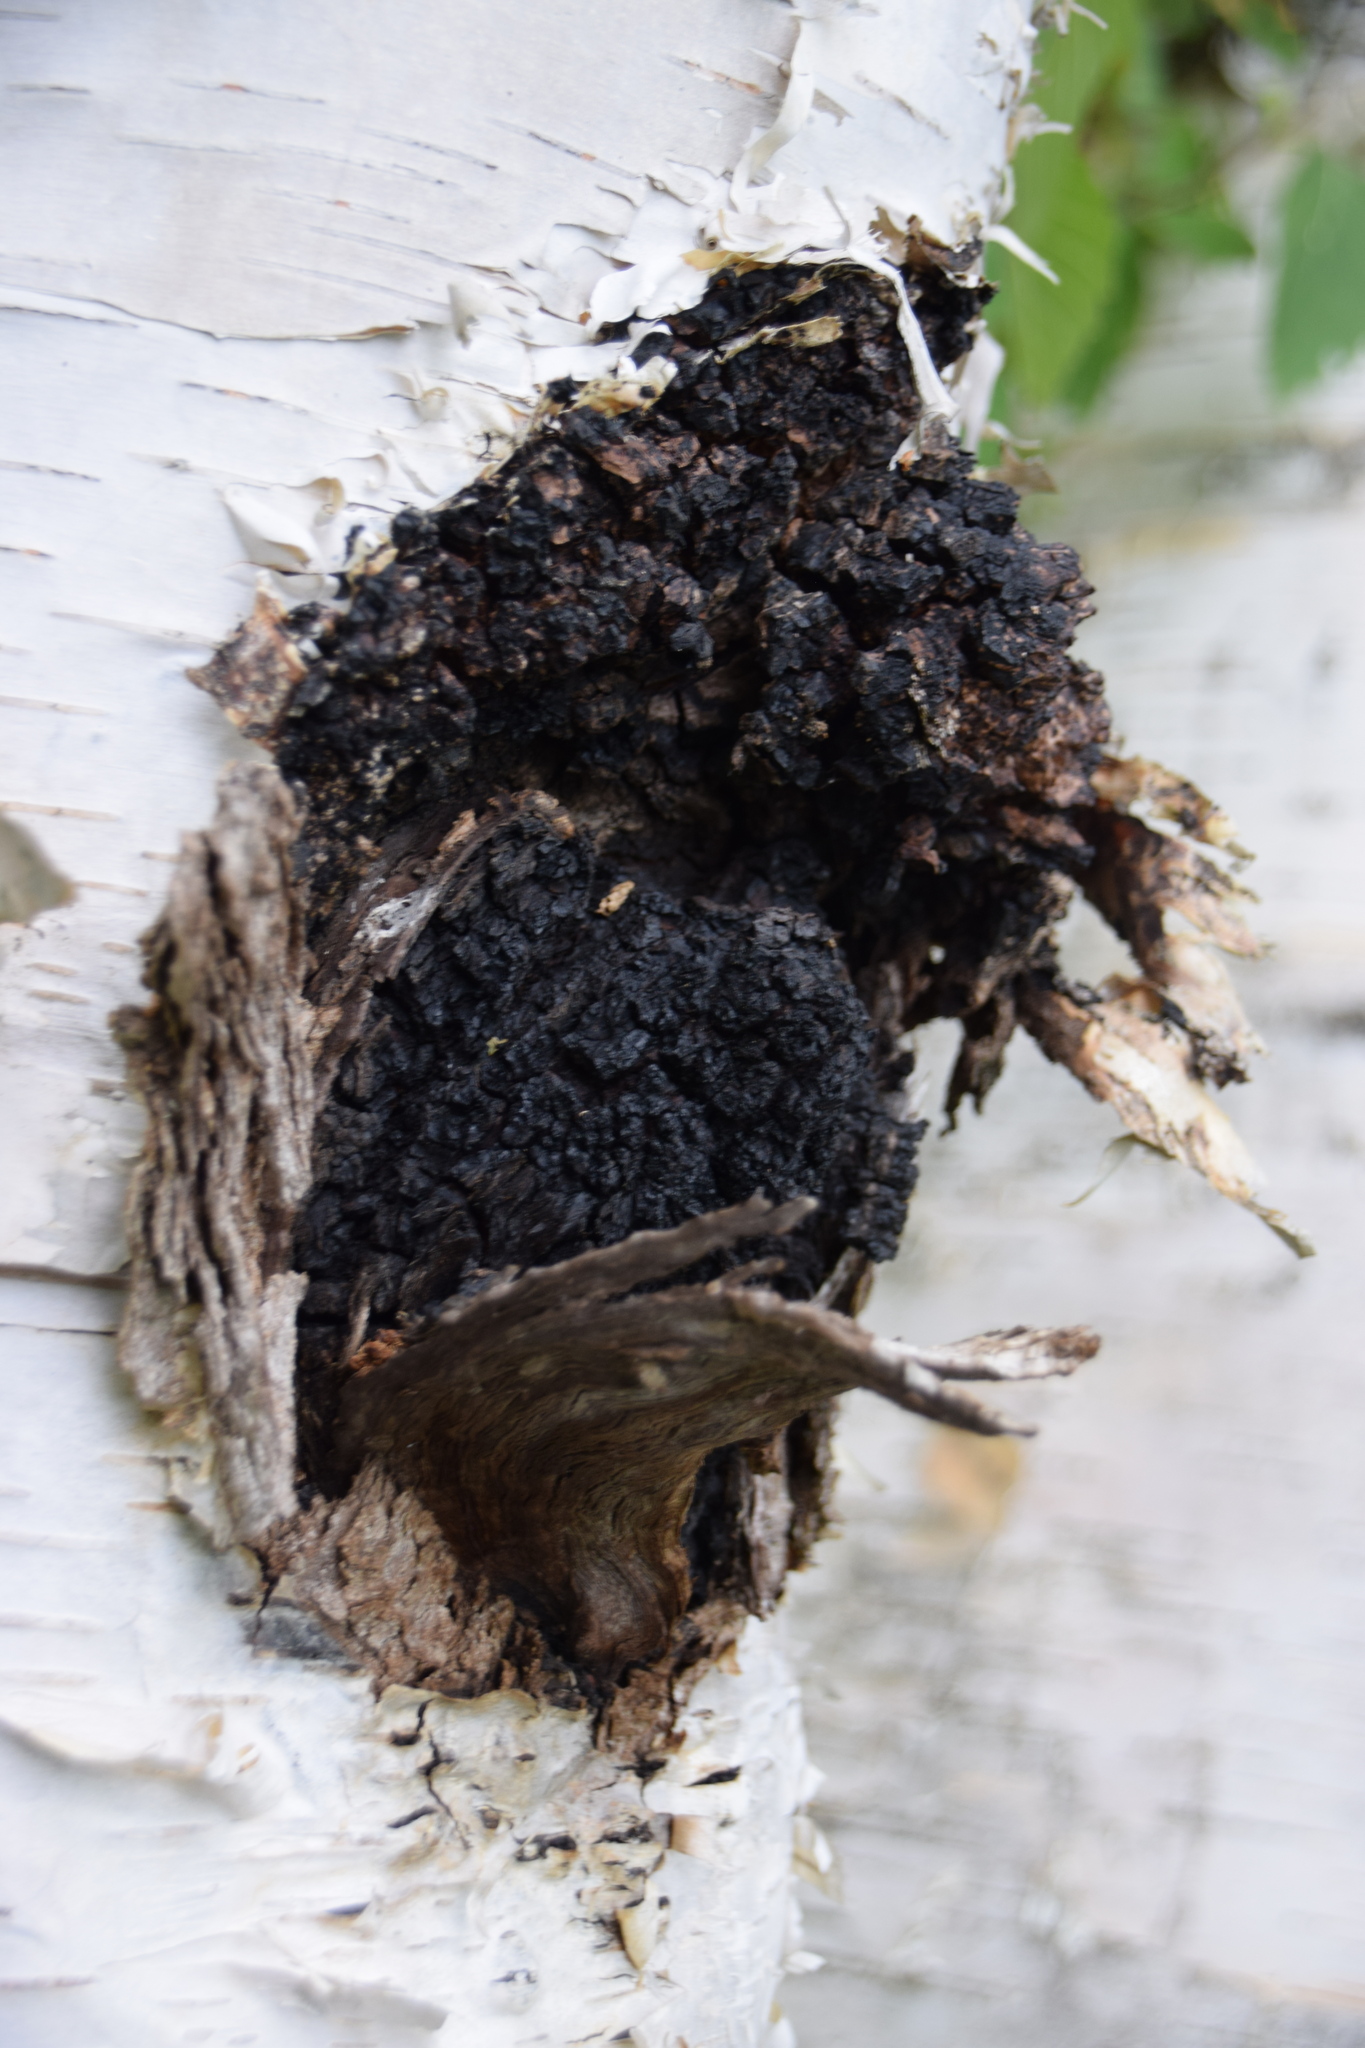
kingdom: Fungi
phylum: Basidiomycota
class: Agaricomycetes
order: Hymenochaetales
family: Hymenochaetaceae
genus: Inonotus
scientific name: Inonotus obliquus
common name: Chaga
